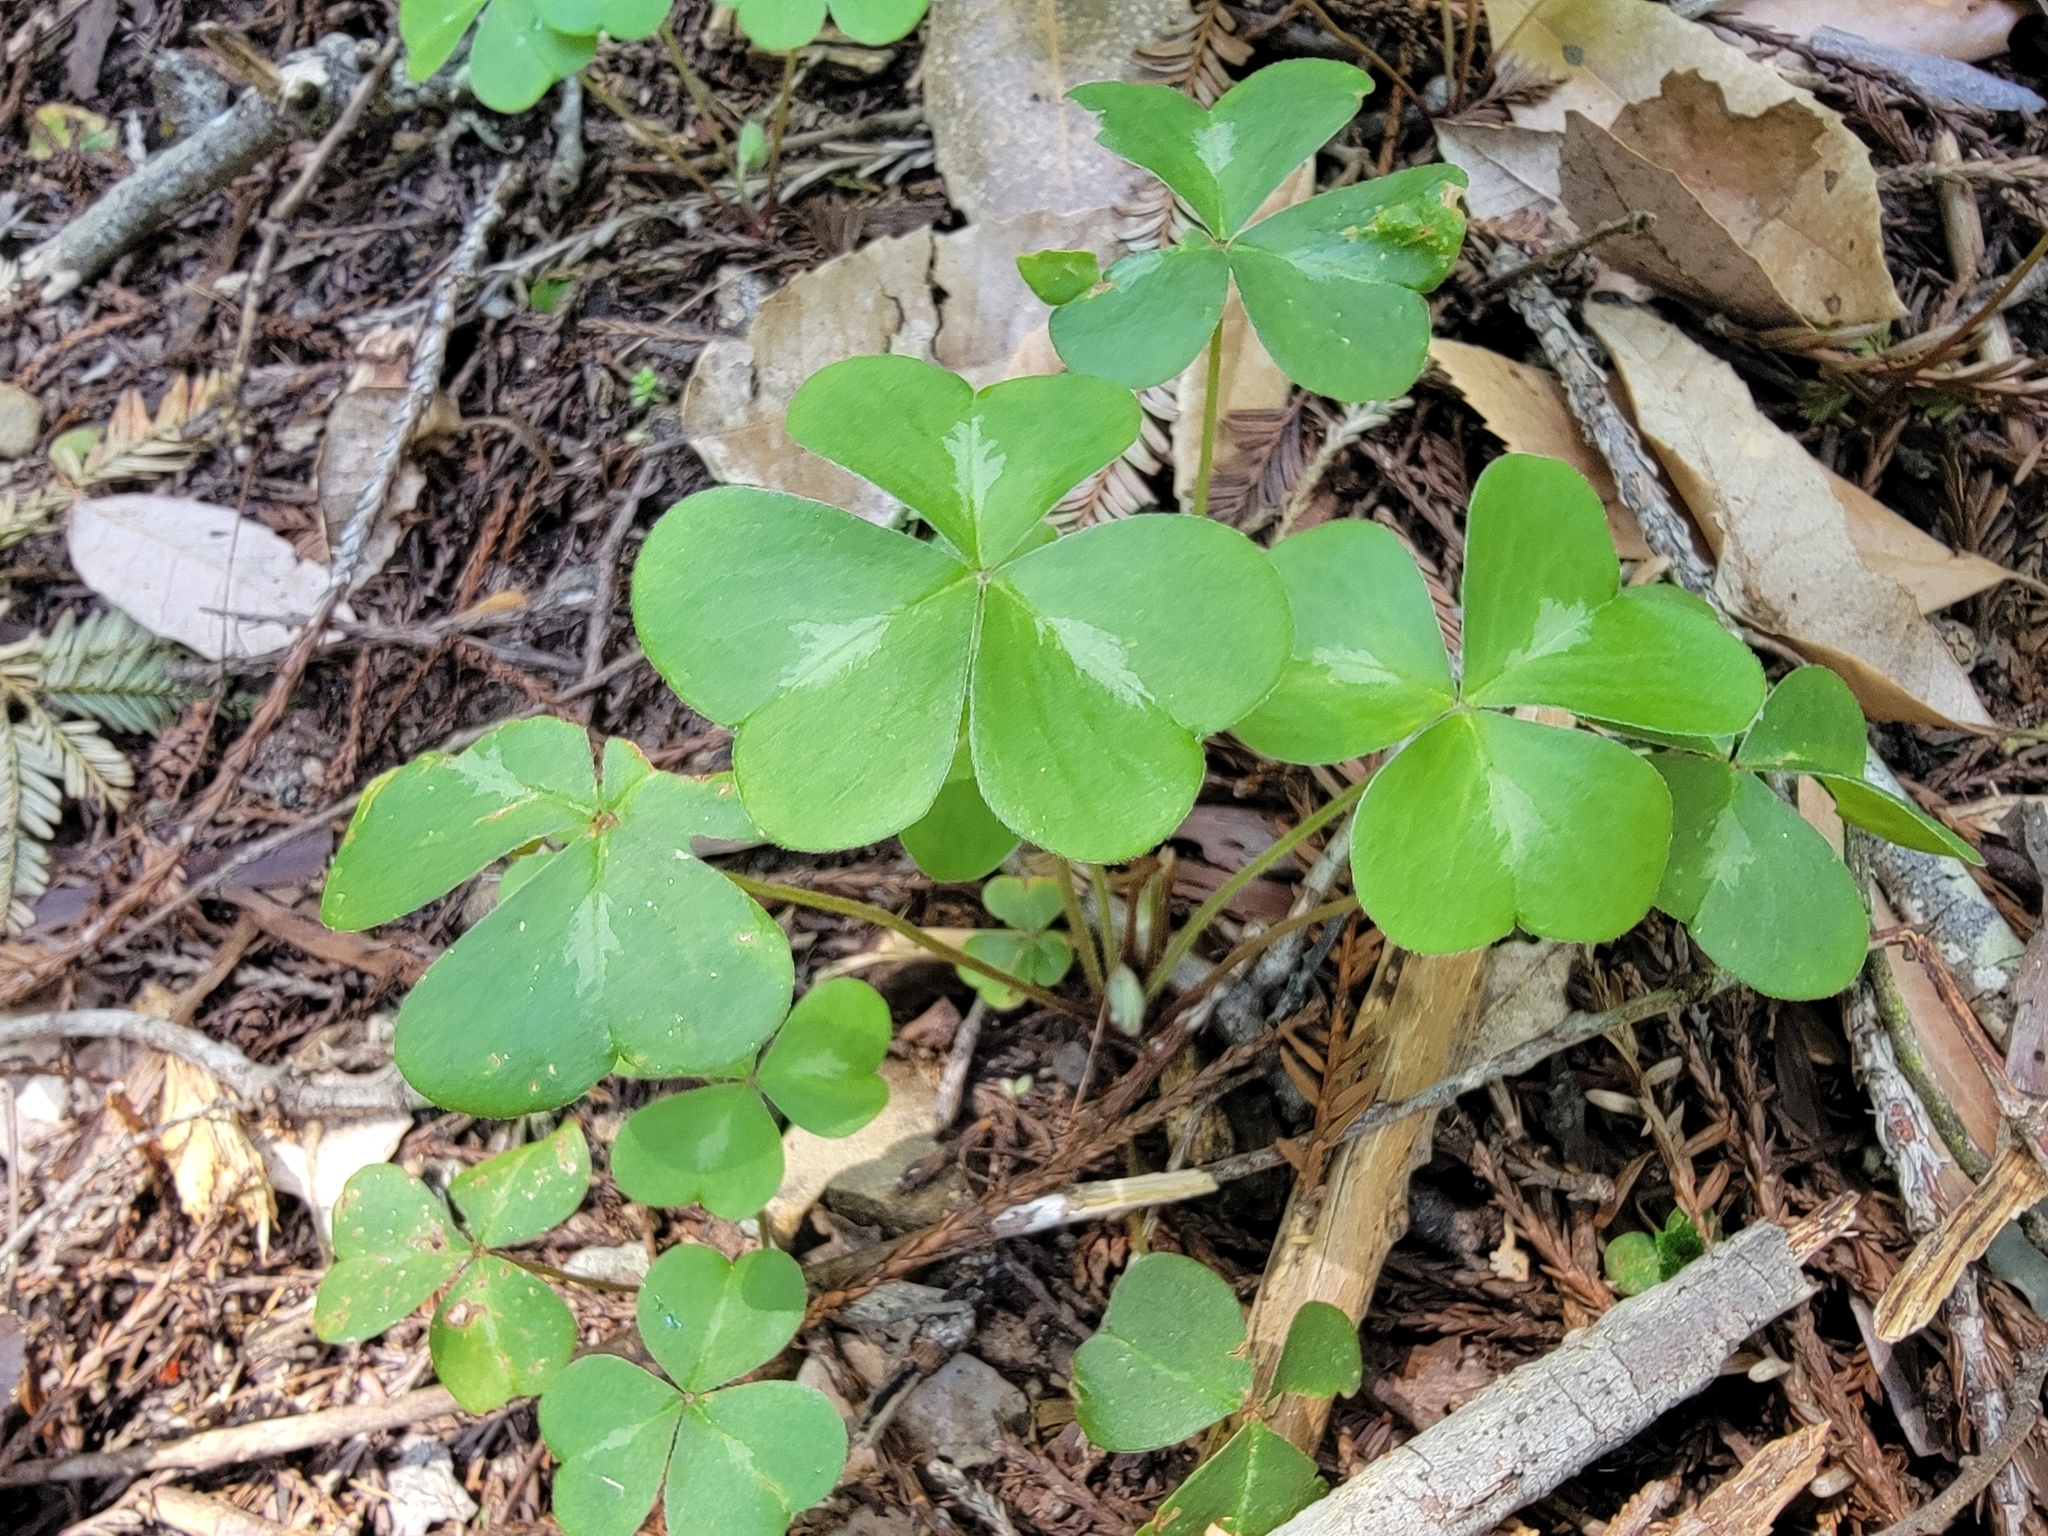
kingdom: Plantae
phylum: Tracheophyta
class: Magnoliopsida
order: Oxalidales
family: Oxalidaceae
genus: Oxalis
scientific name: Oxalis oregana
